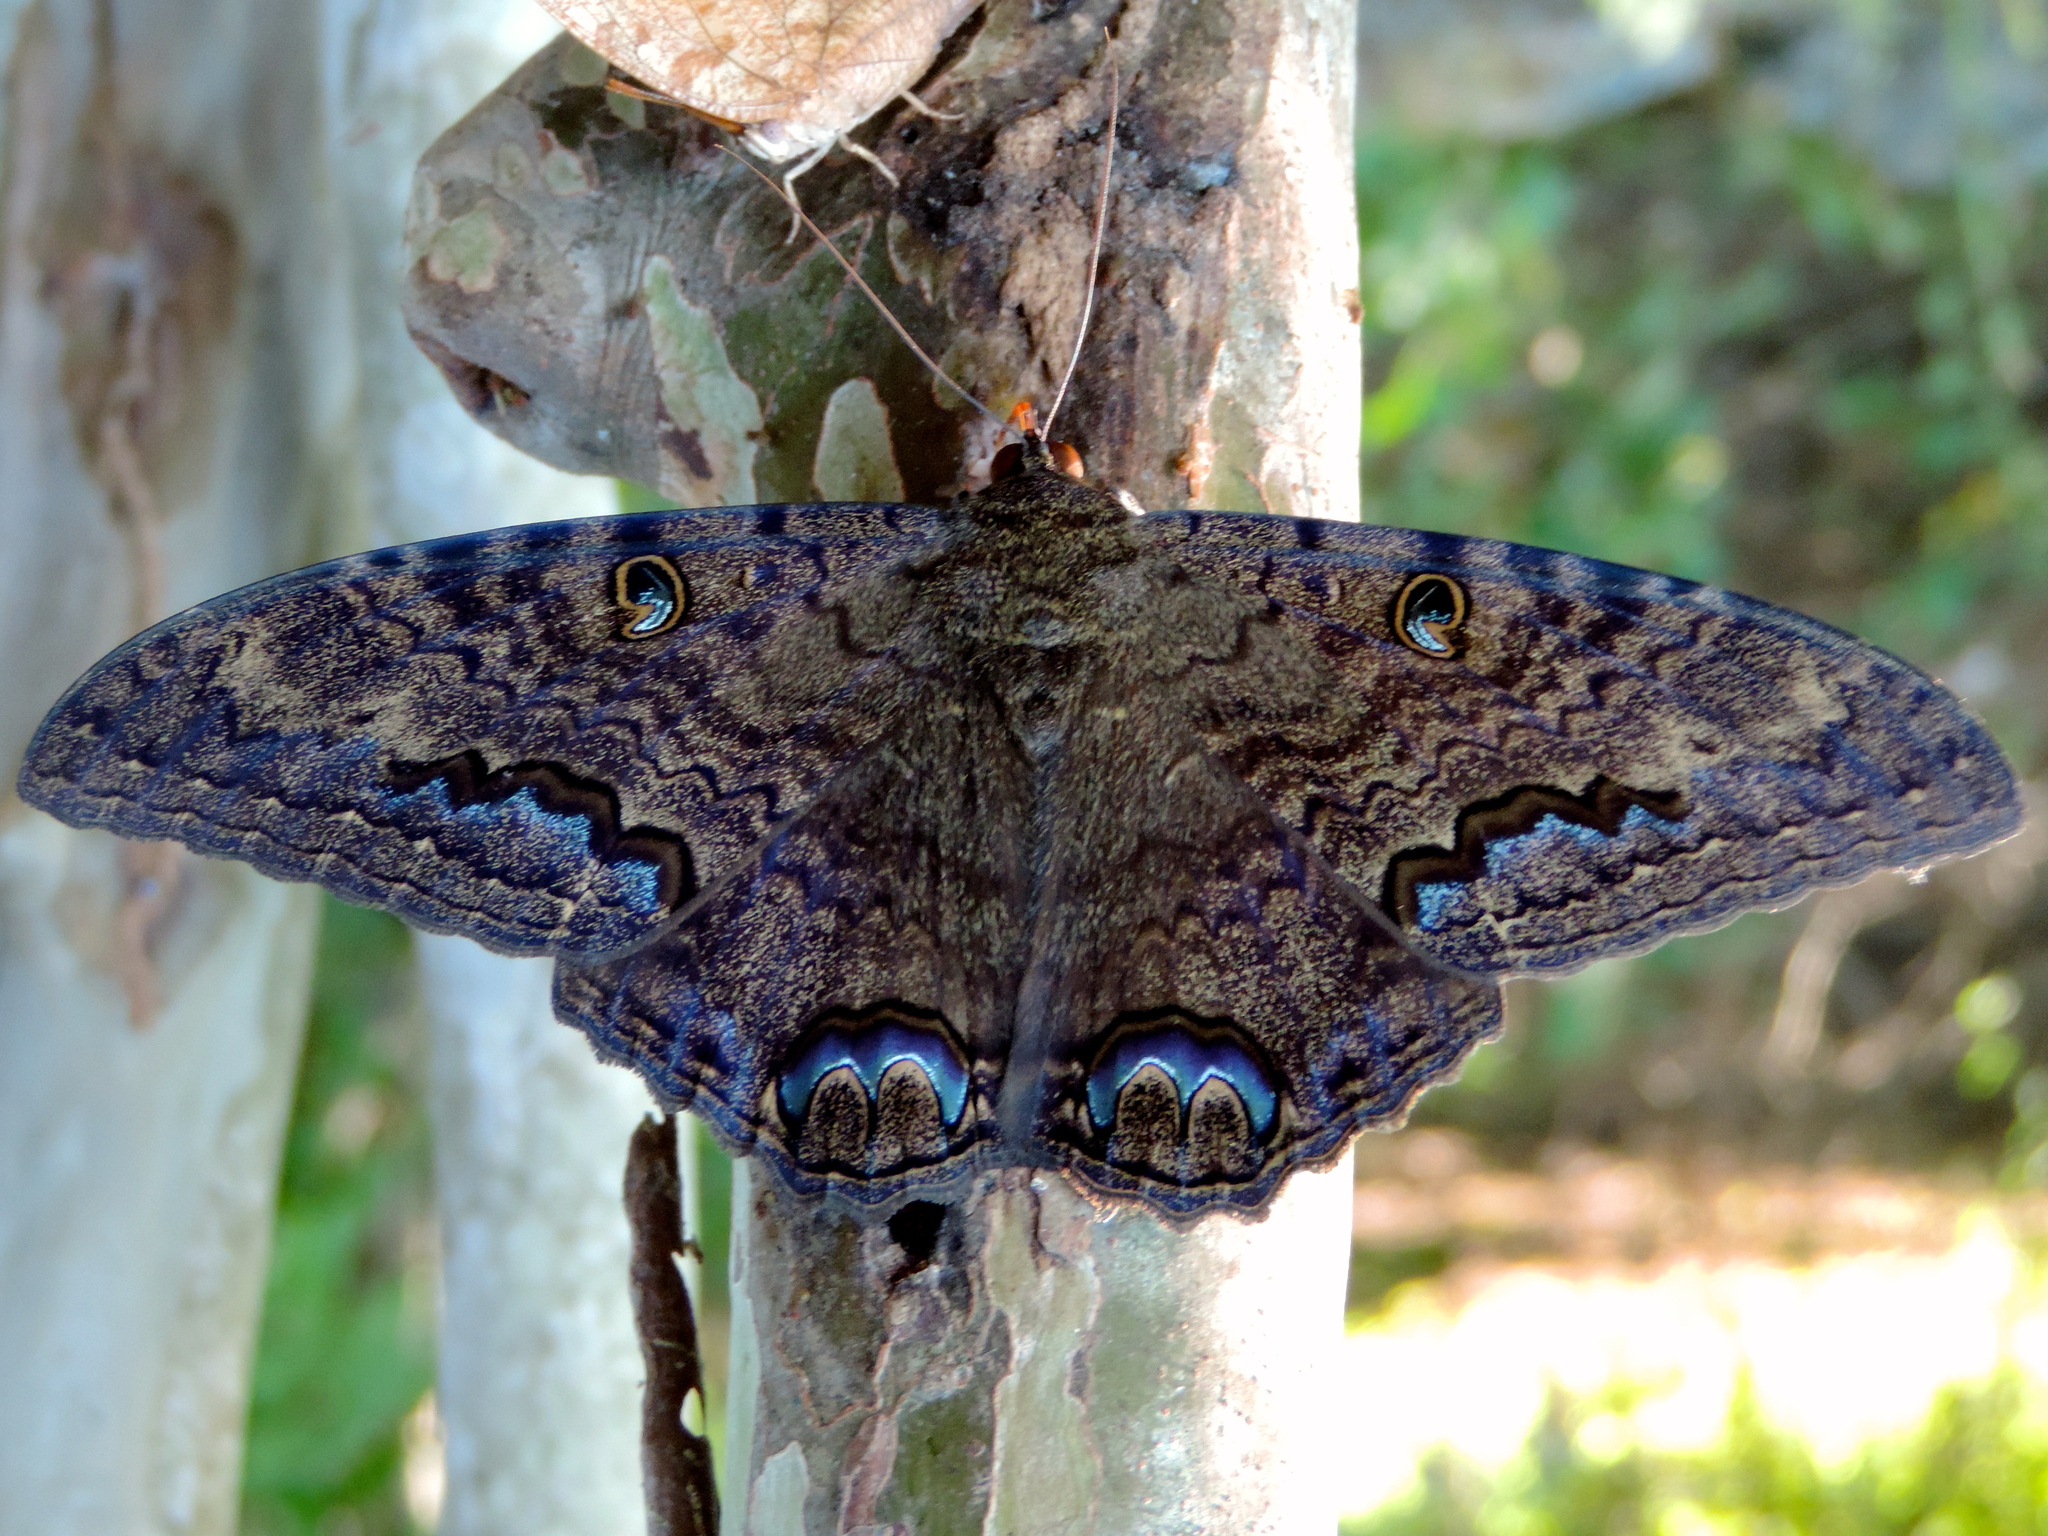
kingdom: Animalia
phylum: Arthropoda
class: Insecta
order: Lepidoptera
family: Erebidae
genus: Ascalapha
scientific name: Ascalapha odorata
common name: Black witch
